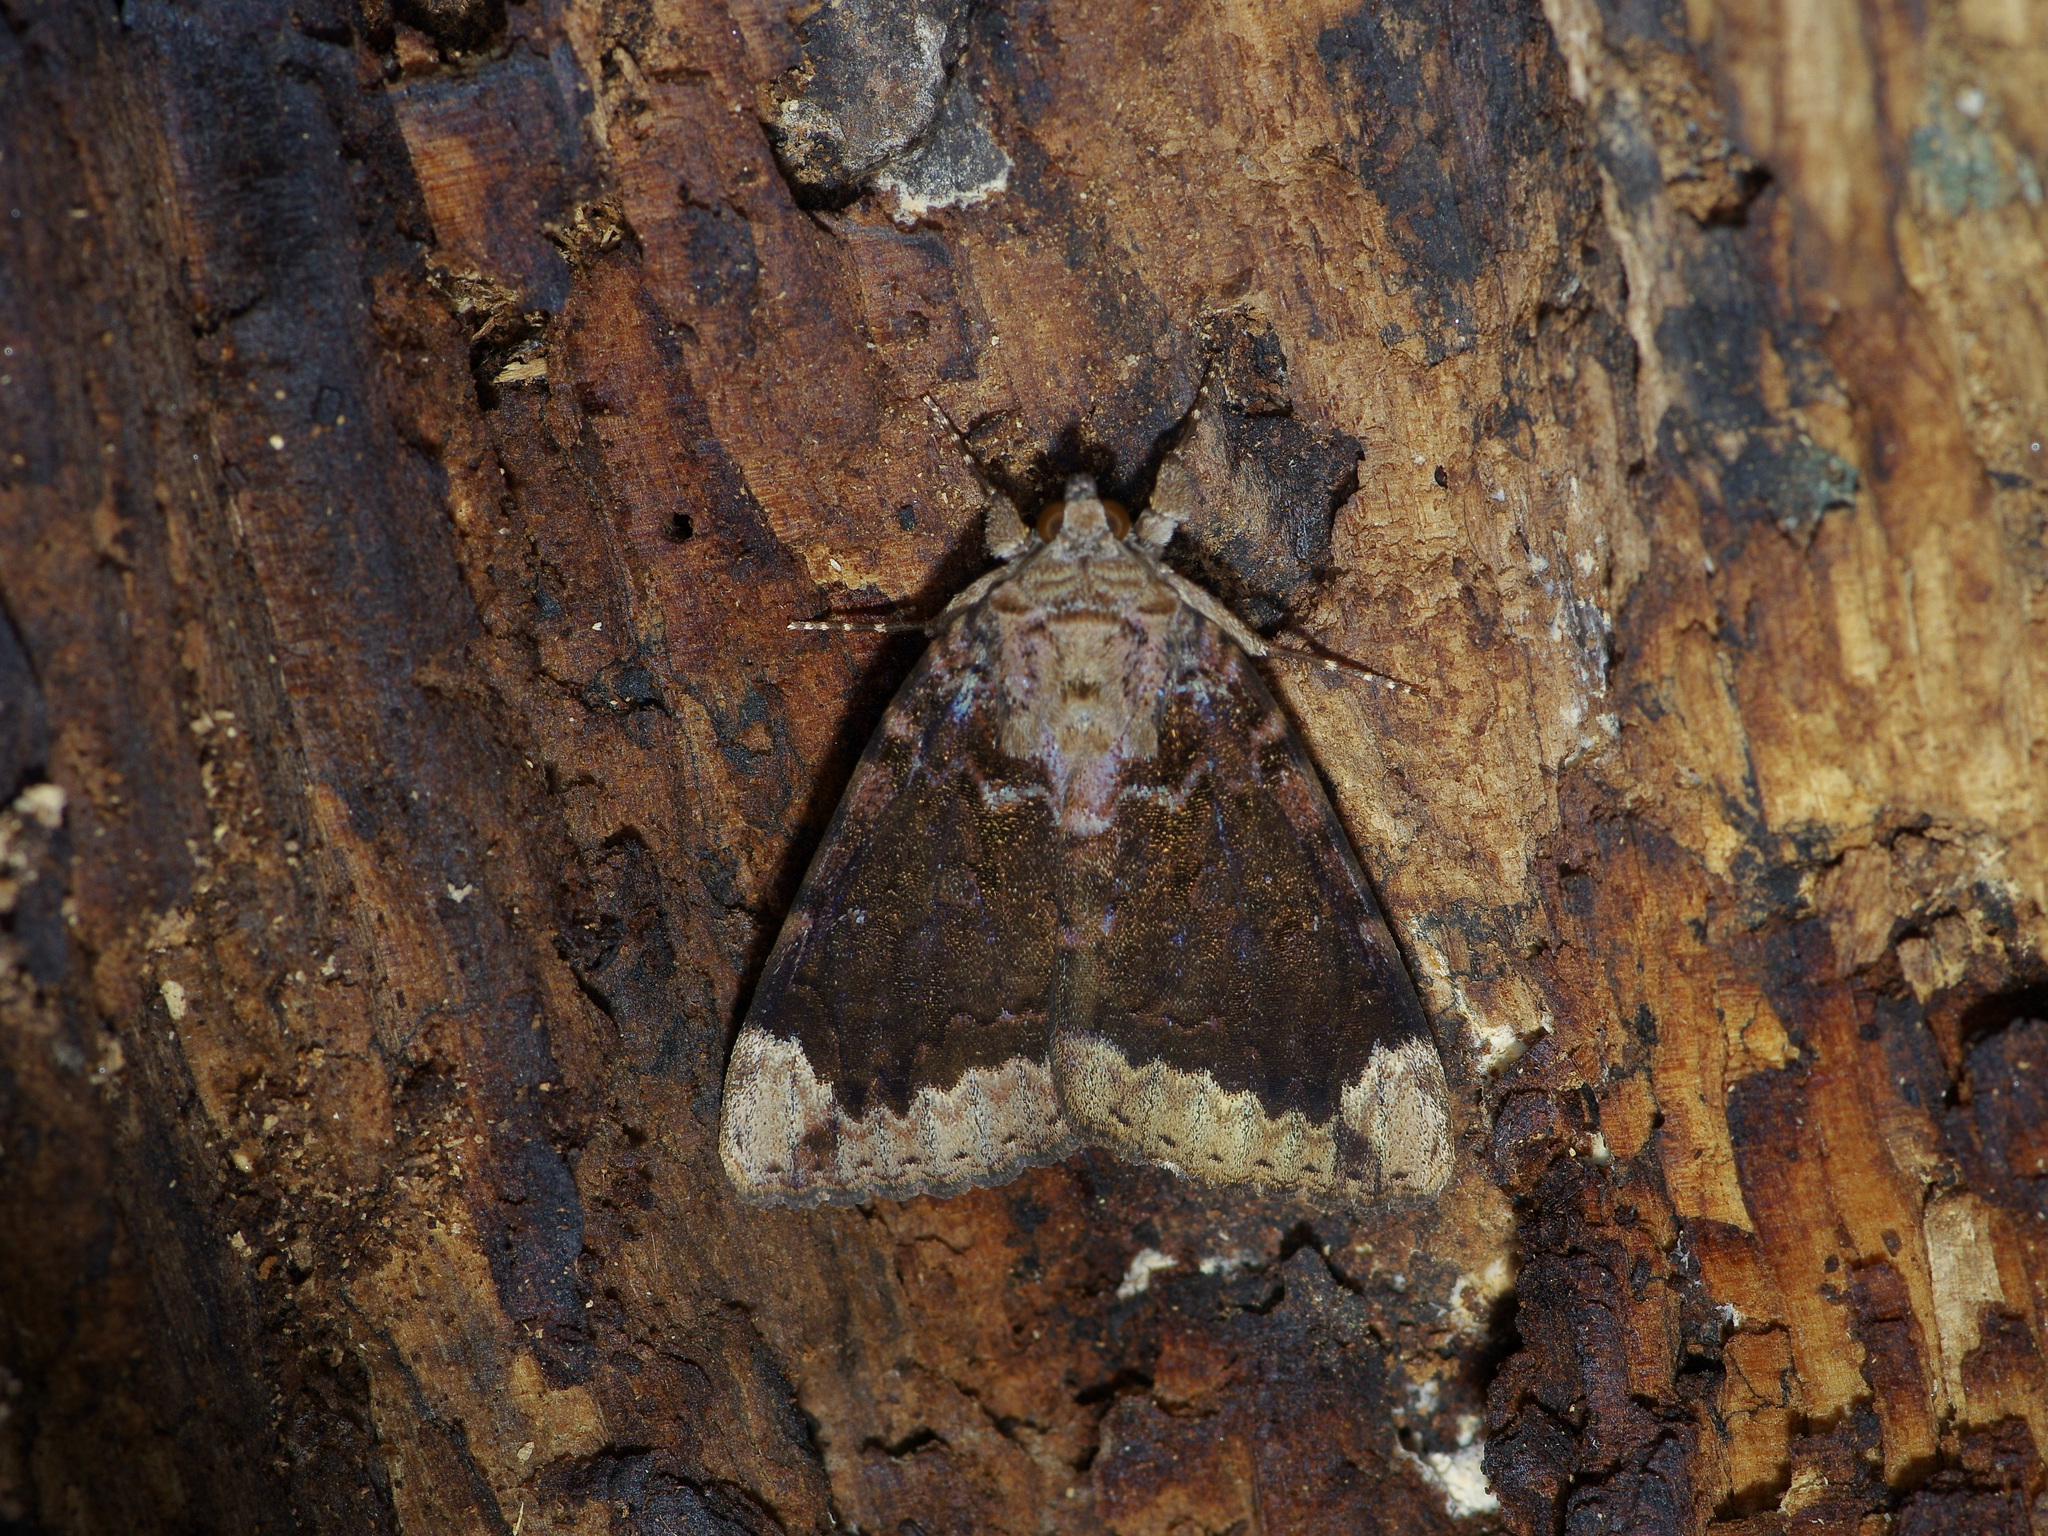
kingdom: Animalia
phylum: Arthropoda
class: Insecta
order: Lepidoptera
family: Erebidae
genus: Catocala
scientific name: Catocala innubens
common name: Betrothed underwing
